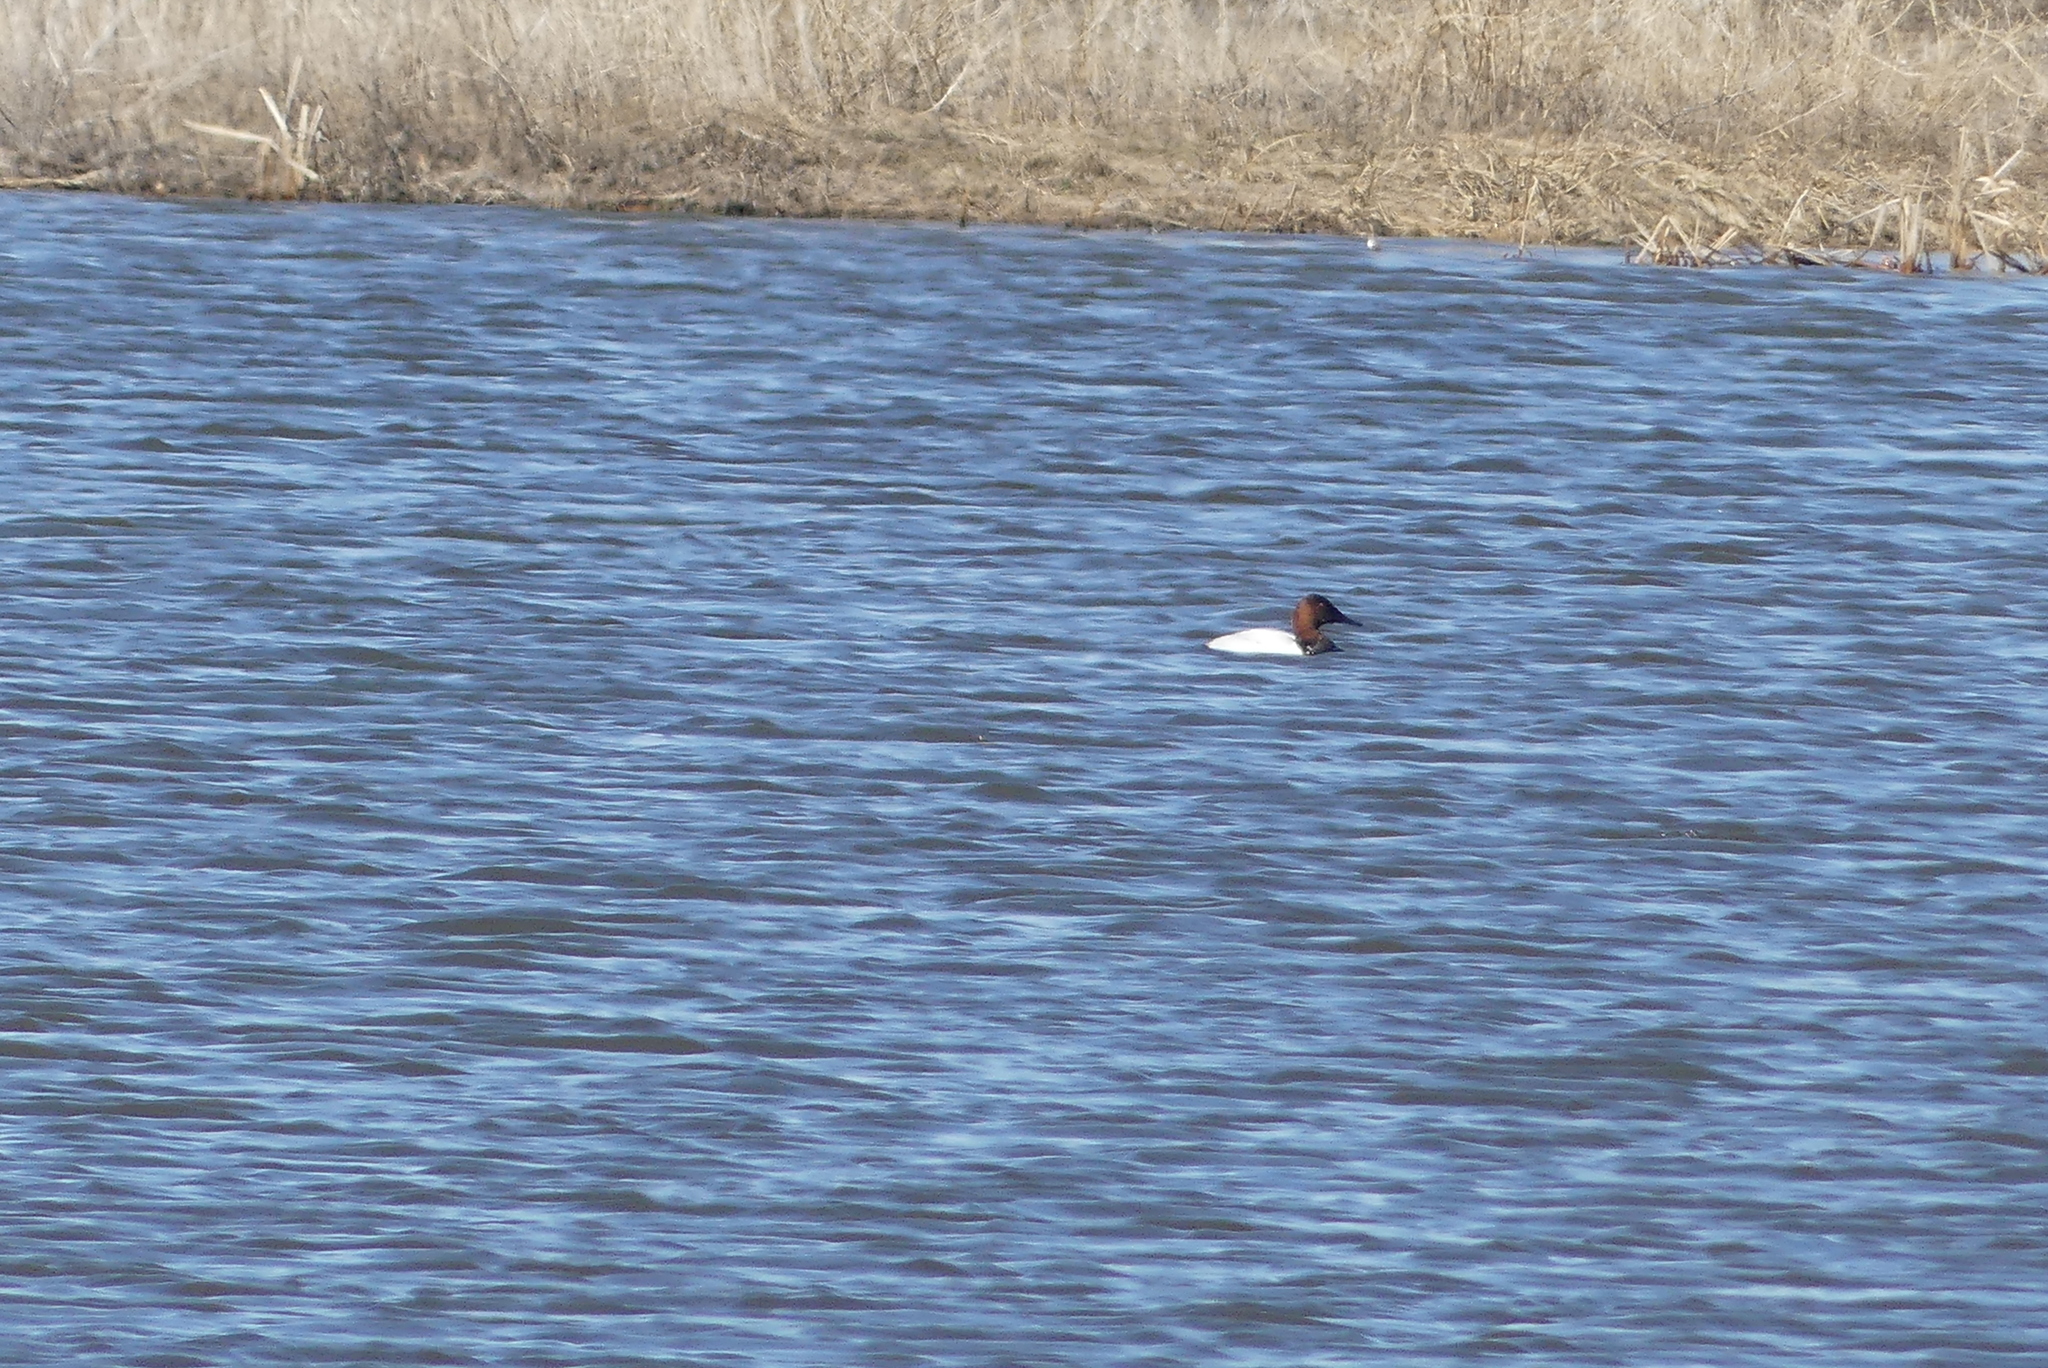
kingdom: Animalia
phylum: Chordata
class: Aves
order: Anseriformes
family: Anatidae
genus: Aythya
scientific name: Aythya valisineria
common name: Canvasback
